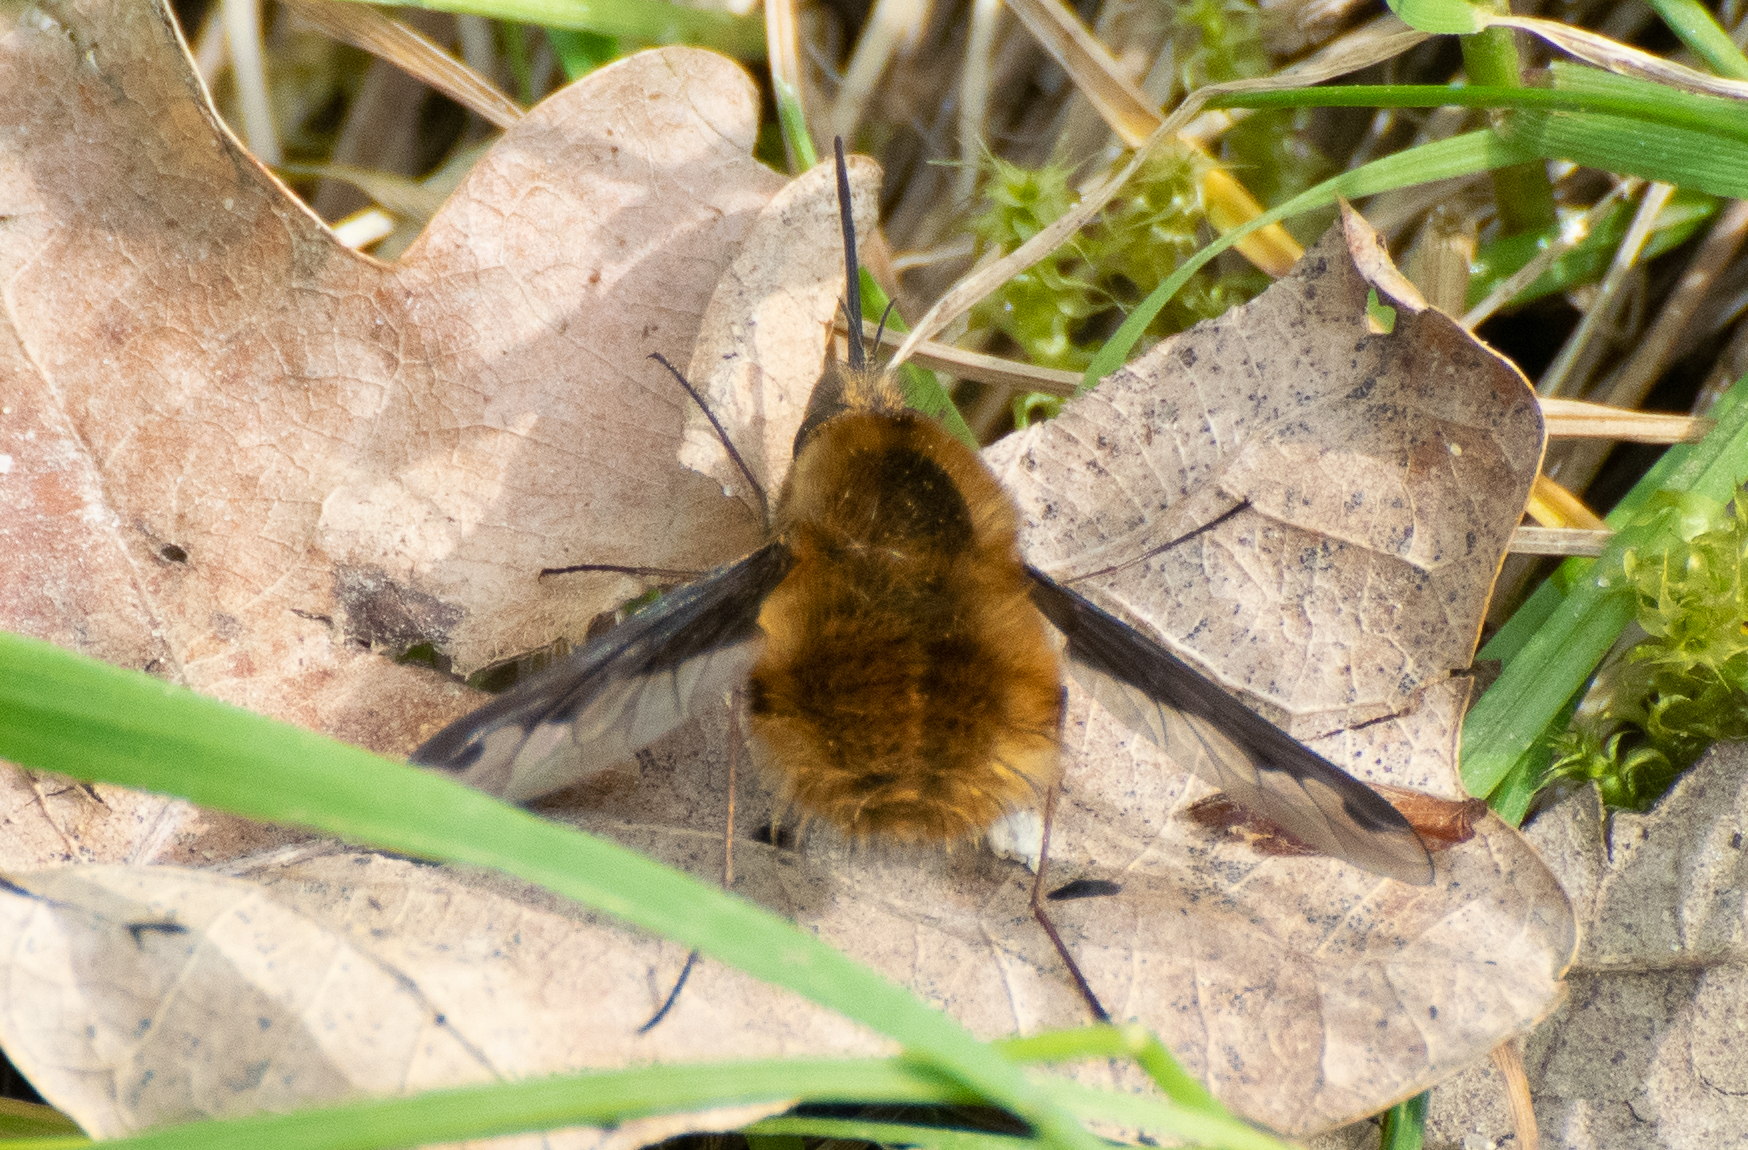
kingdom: Animalia
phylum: Arthropoda
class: Insecta
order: Diptera
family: Bombyliidae
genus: Bombylius
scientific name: Bombylius major
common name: Bee fly
